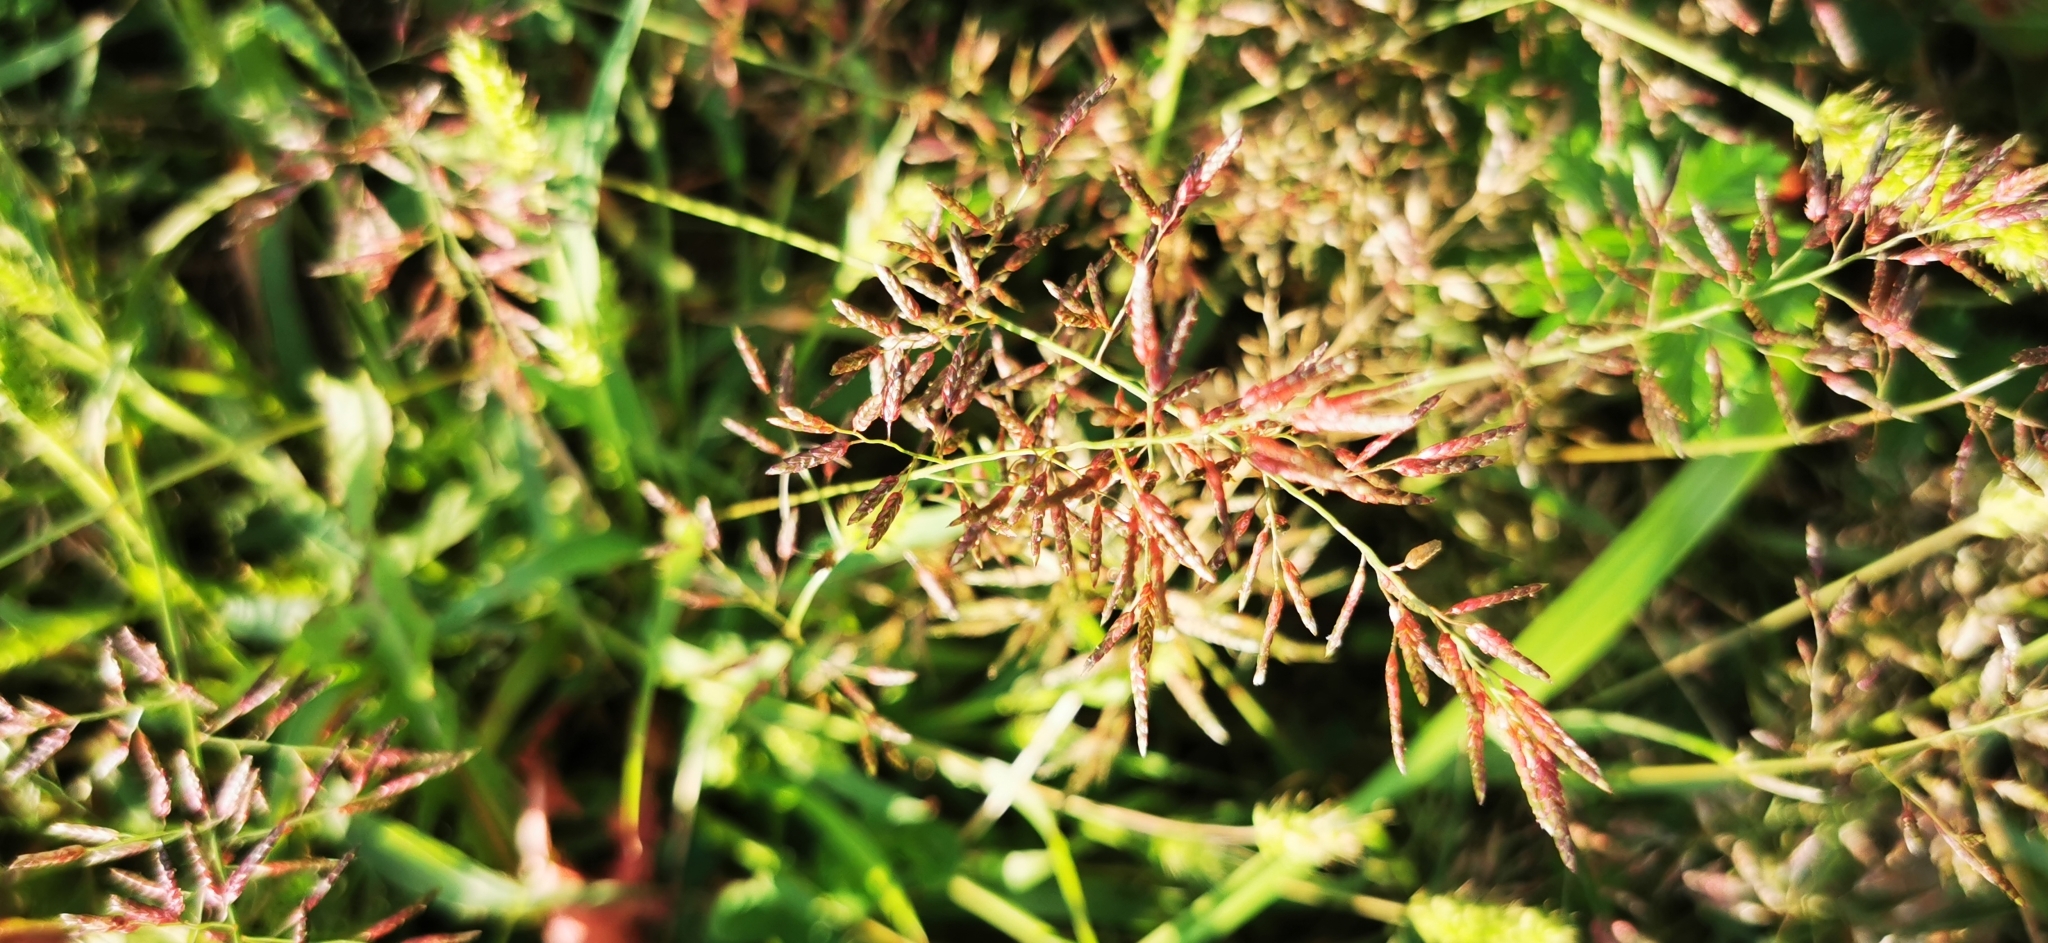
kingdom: Plantae
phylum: Tracheophyta
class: Liliopsida
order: Poales
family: Poaceae
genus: Eragrostis
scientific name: Eragrostis minor
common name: Small love-grass
